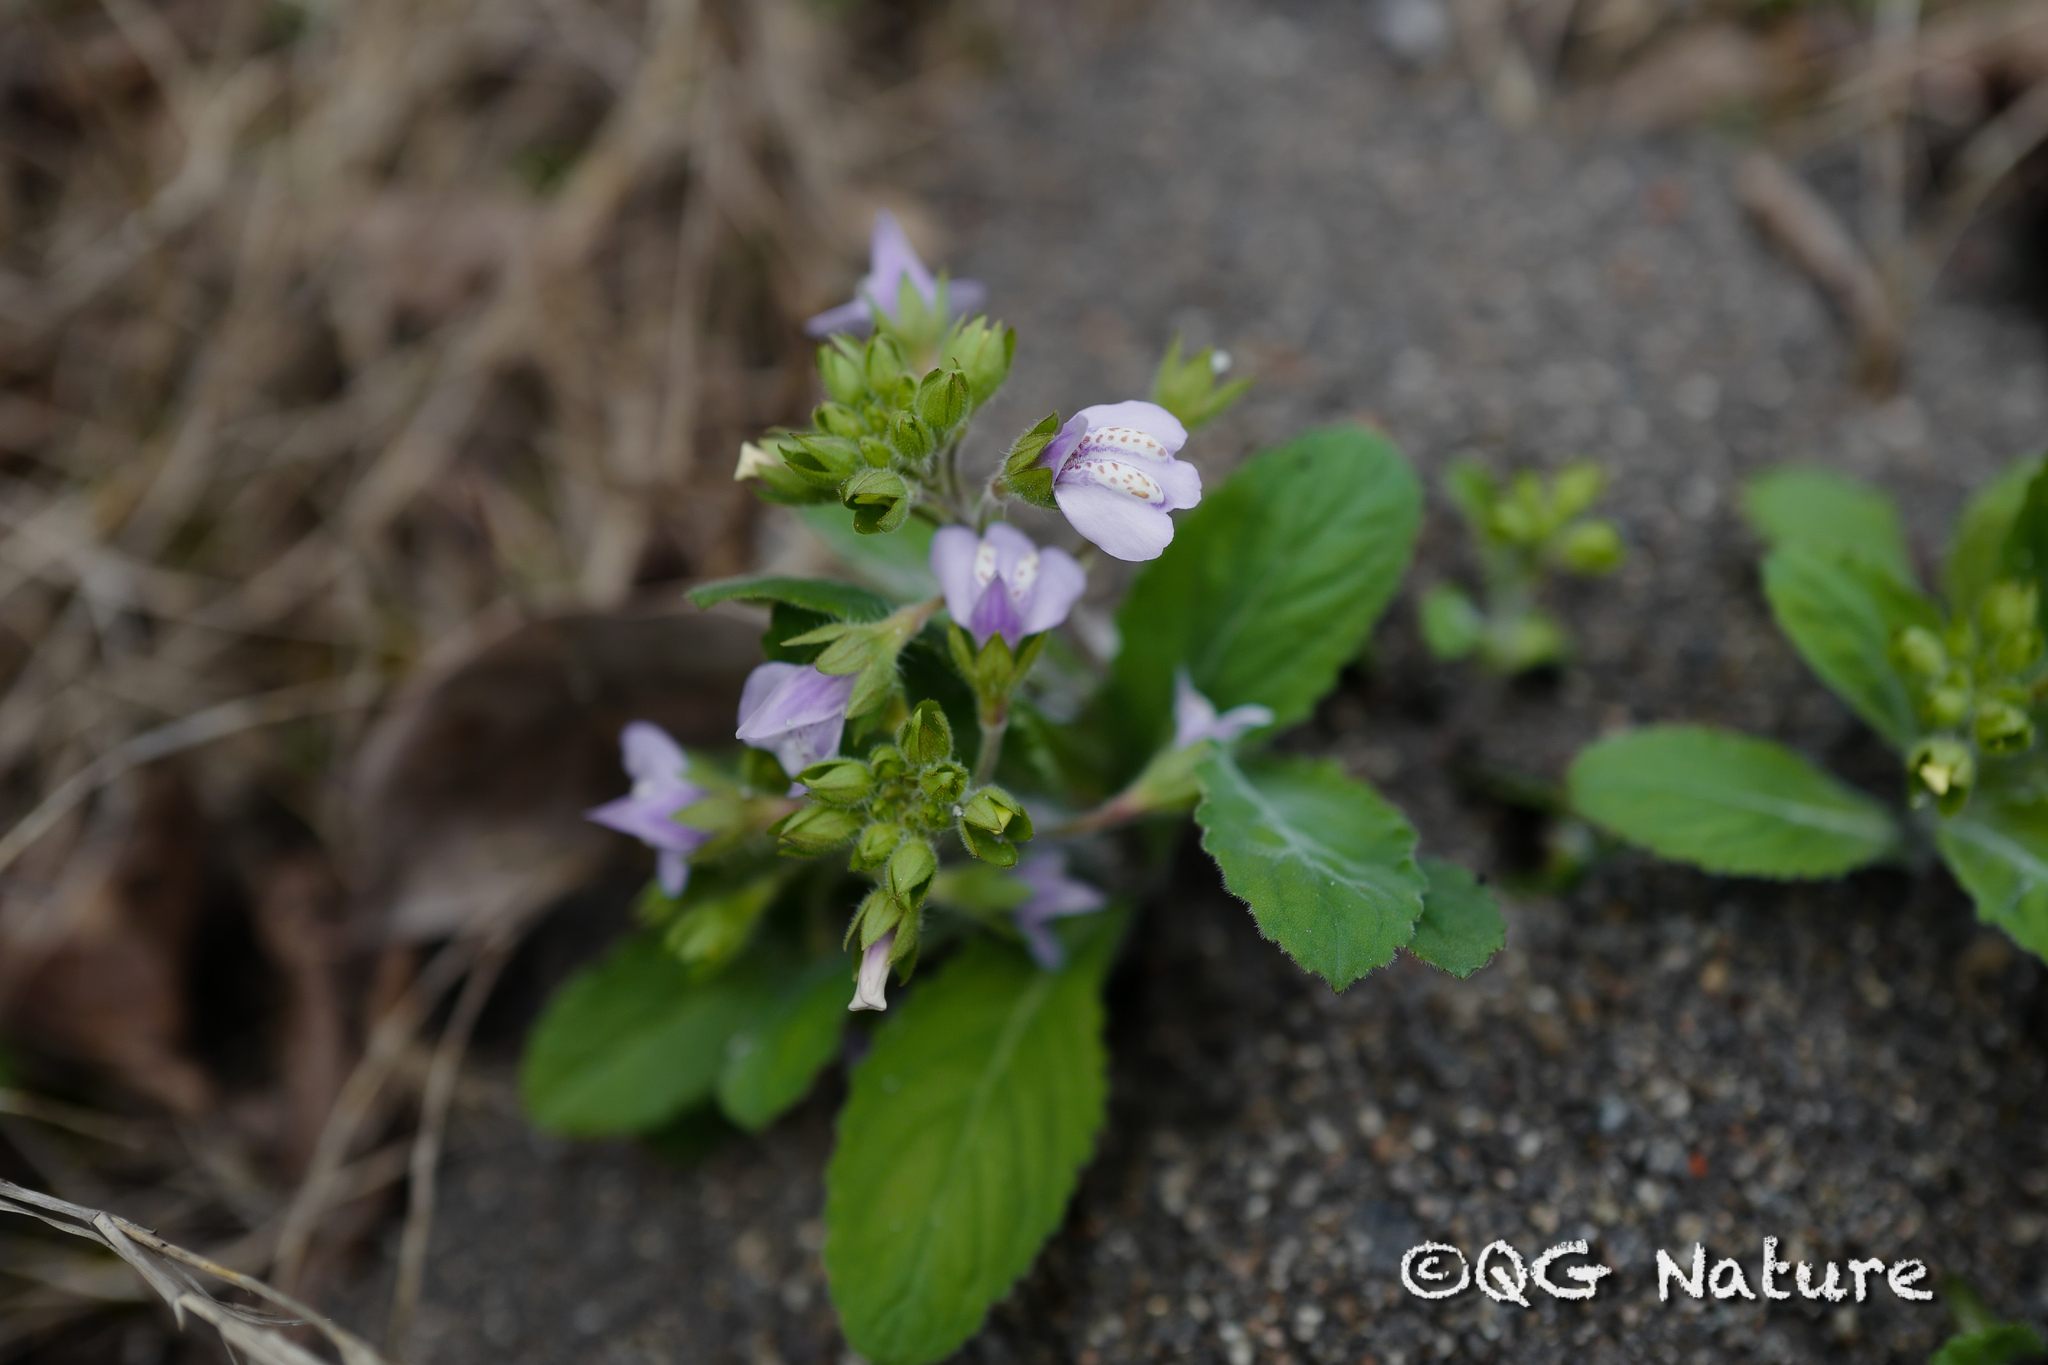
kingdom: Plantae
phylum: Tracheophyta
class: Magnoliopsida
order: Lamiales
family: Mazaceae
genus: Mazus
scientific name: Mazus miquelii
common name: Miquel's mazus
